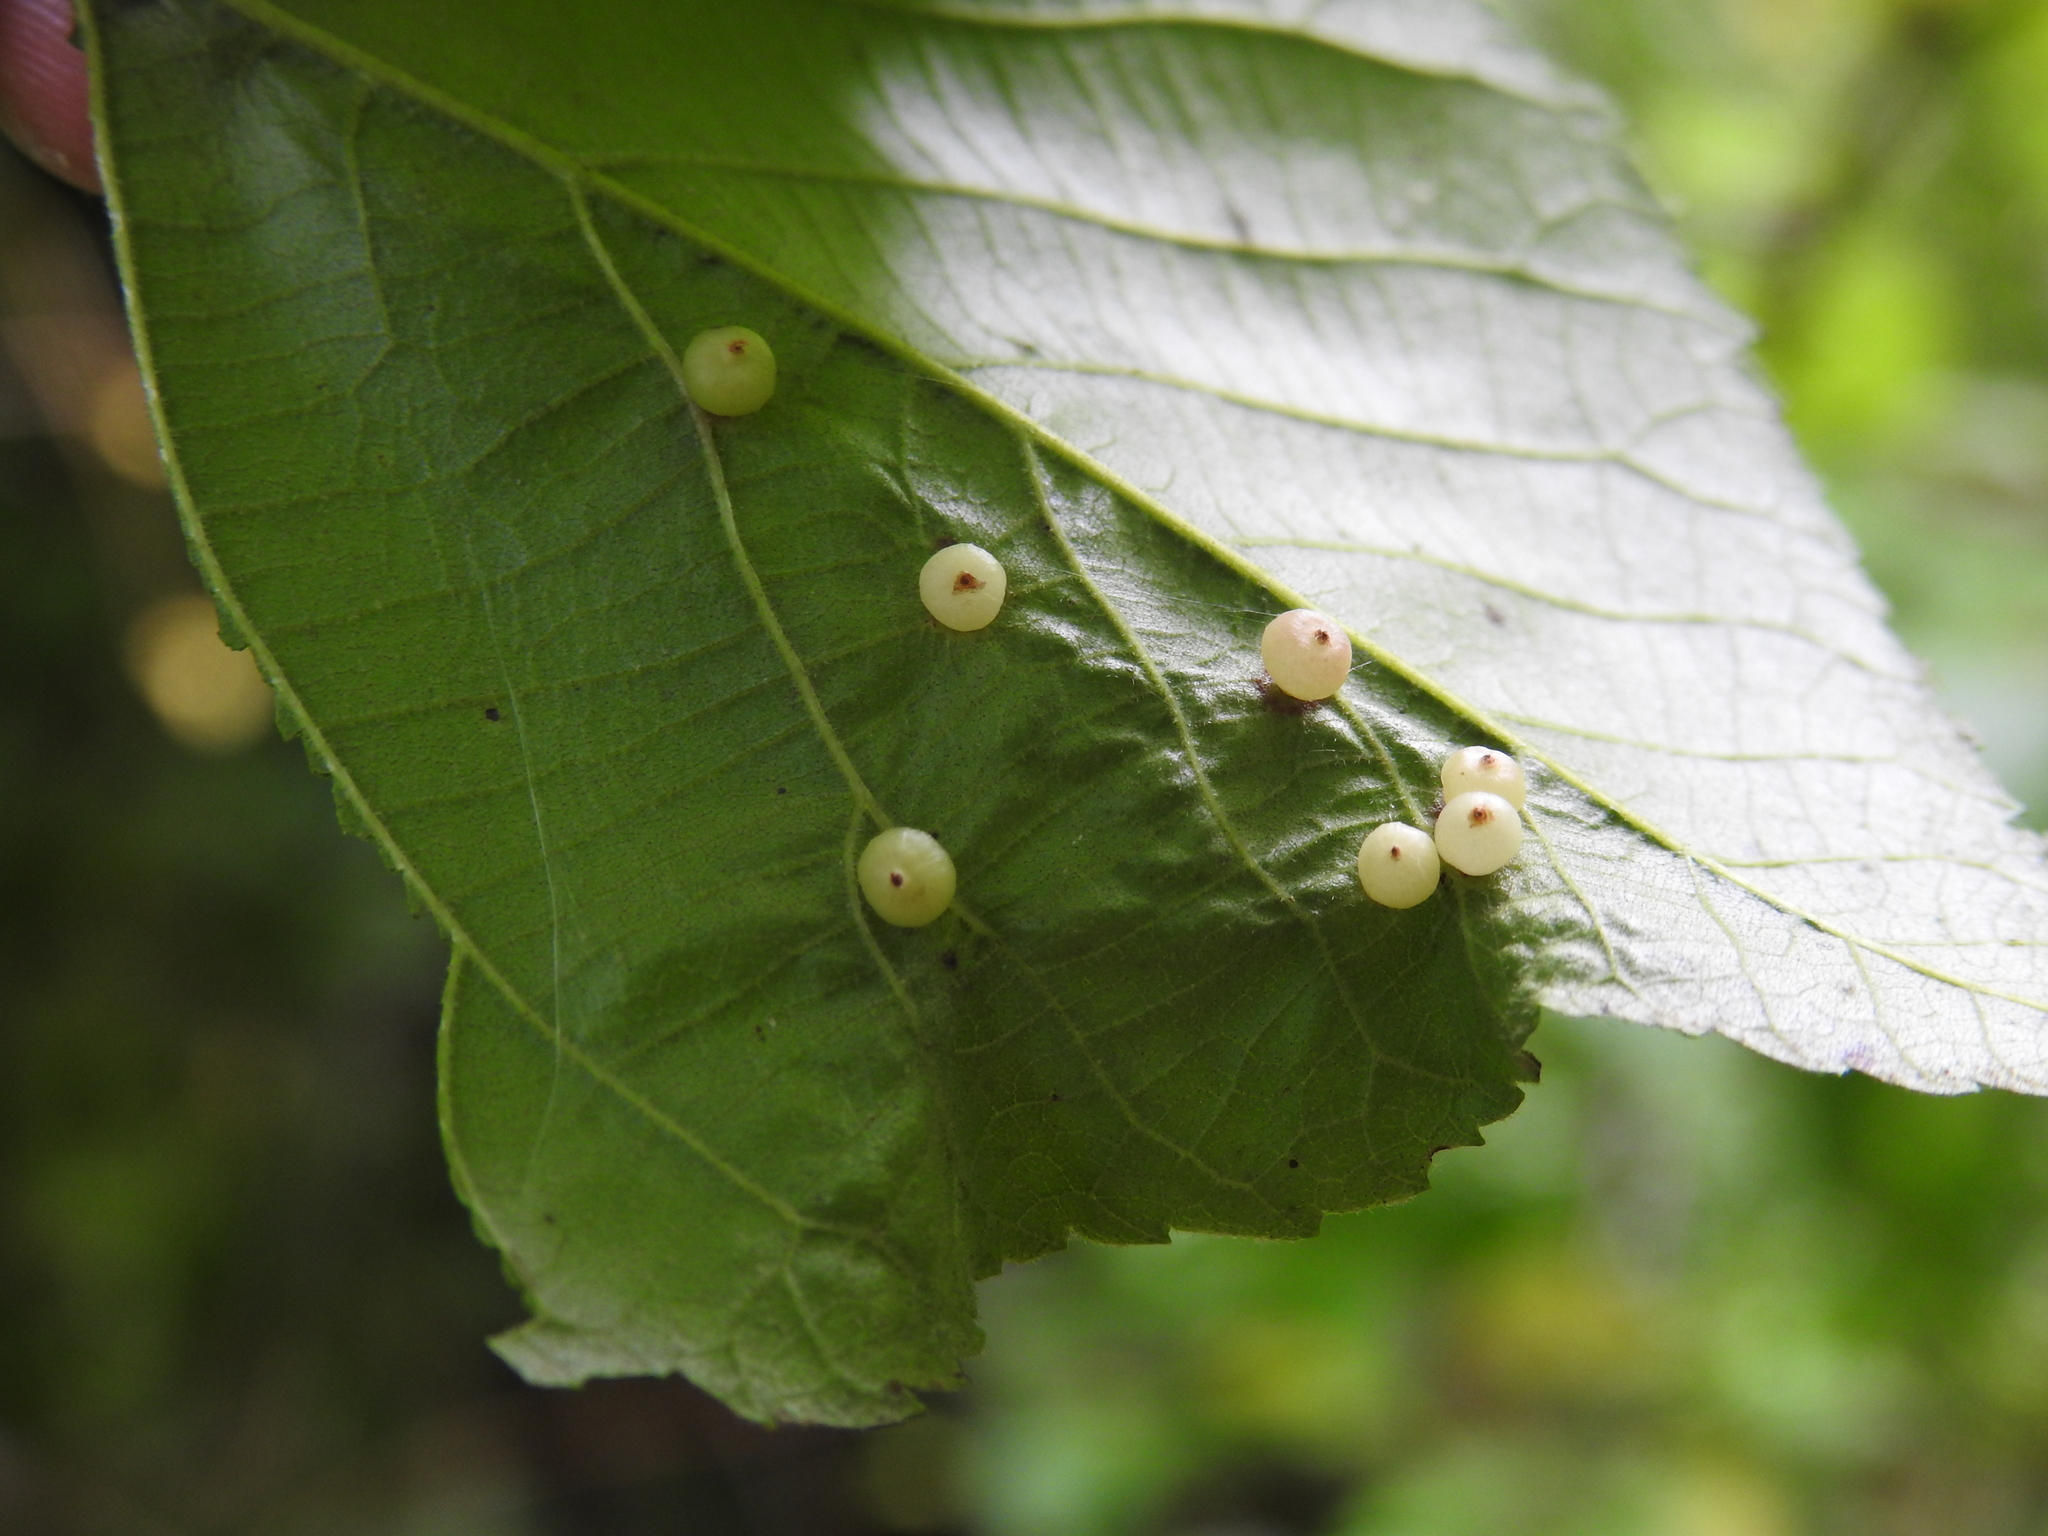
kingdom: Animalia
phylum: Arthropoda
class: Insecta
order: Diptera
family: Cecidomyiidae
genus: Caryomyia
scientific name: Caryomyia caryae
